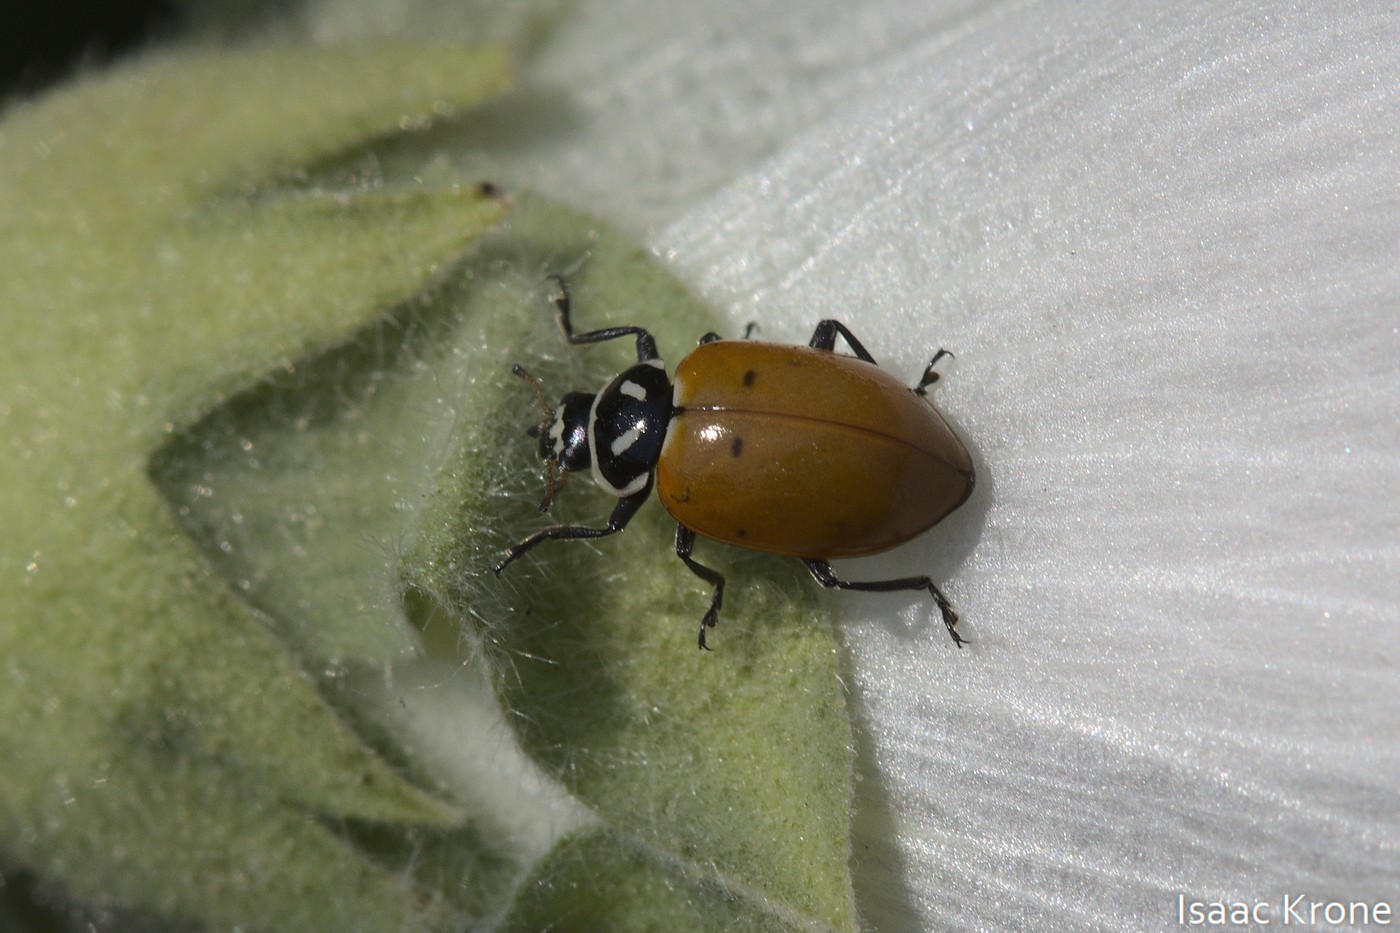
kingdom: Animalia
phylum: Arthropoda
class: Insecta
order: Coleoptera
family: Coccinellidae
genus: Hippodamia
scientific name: Hippodamia convergens
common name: Convergent lady beetle
